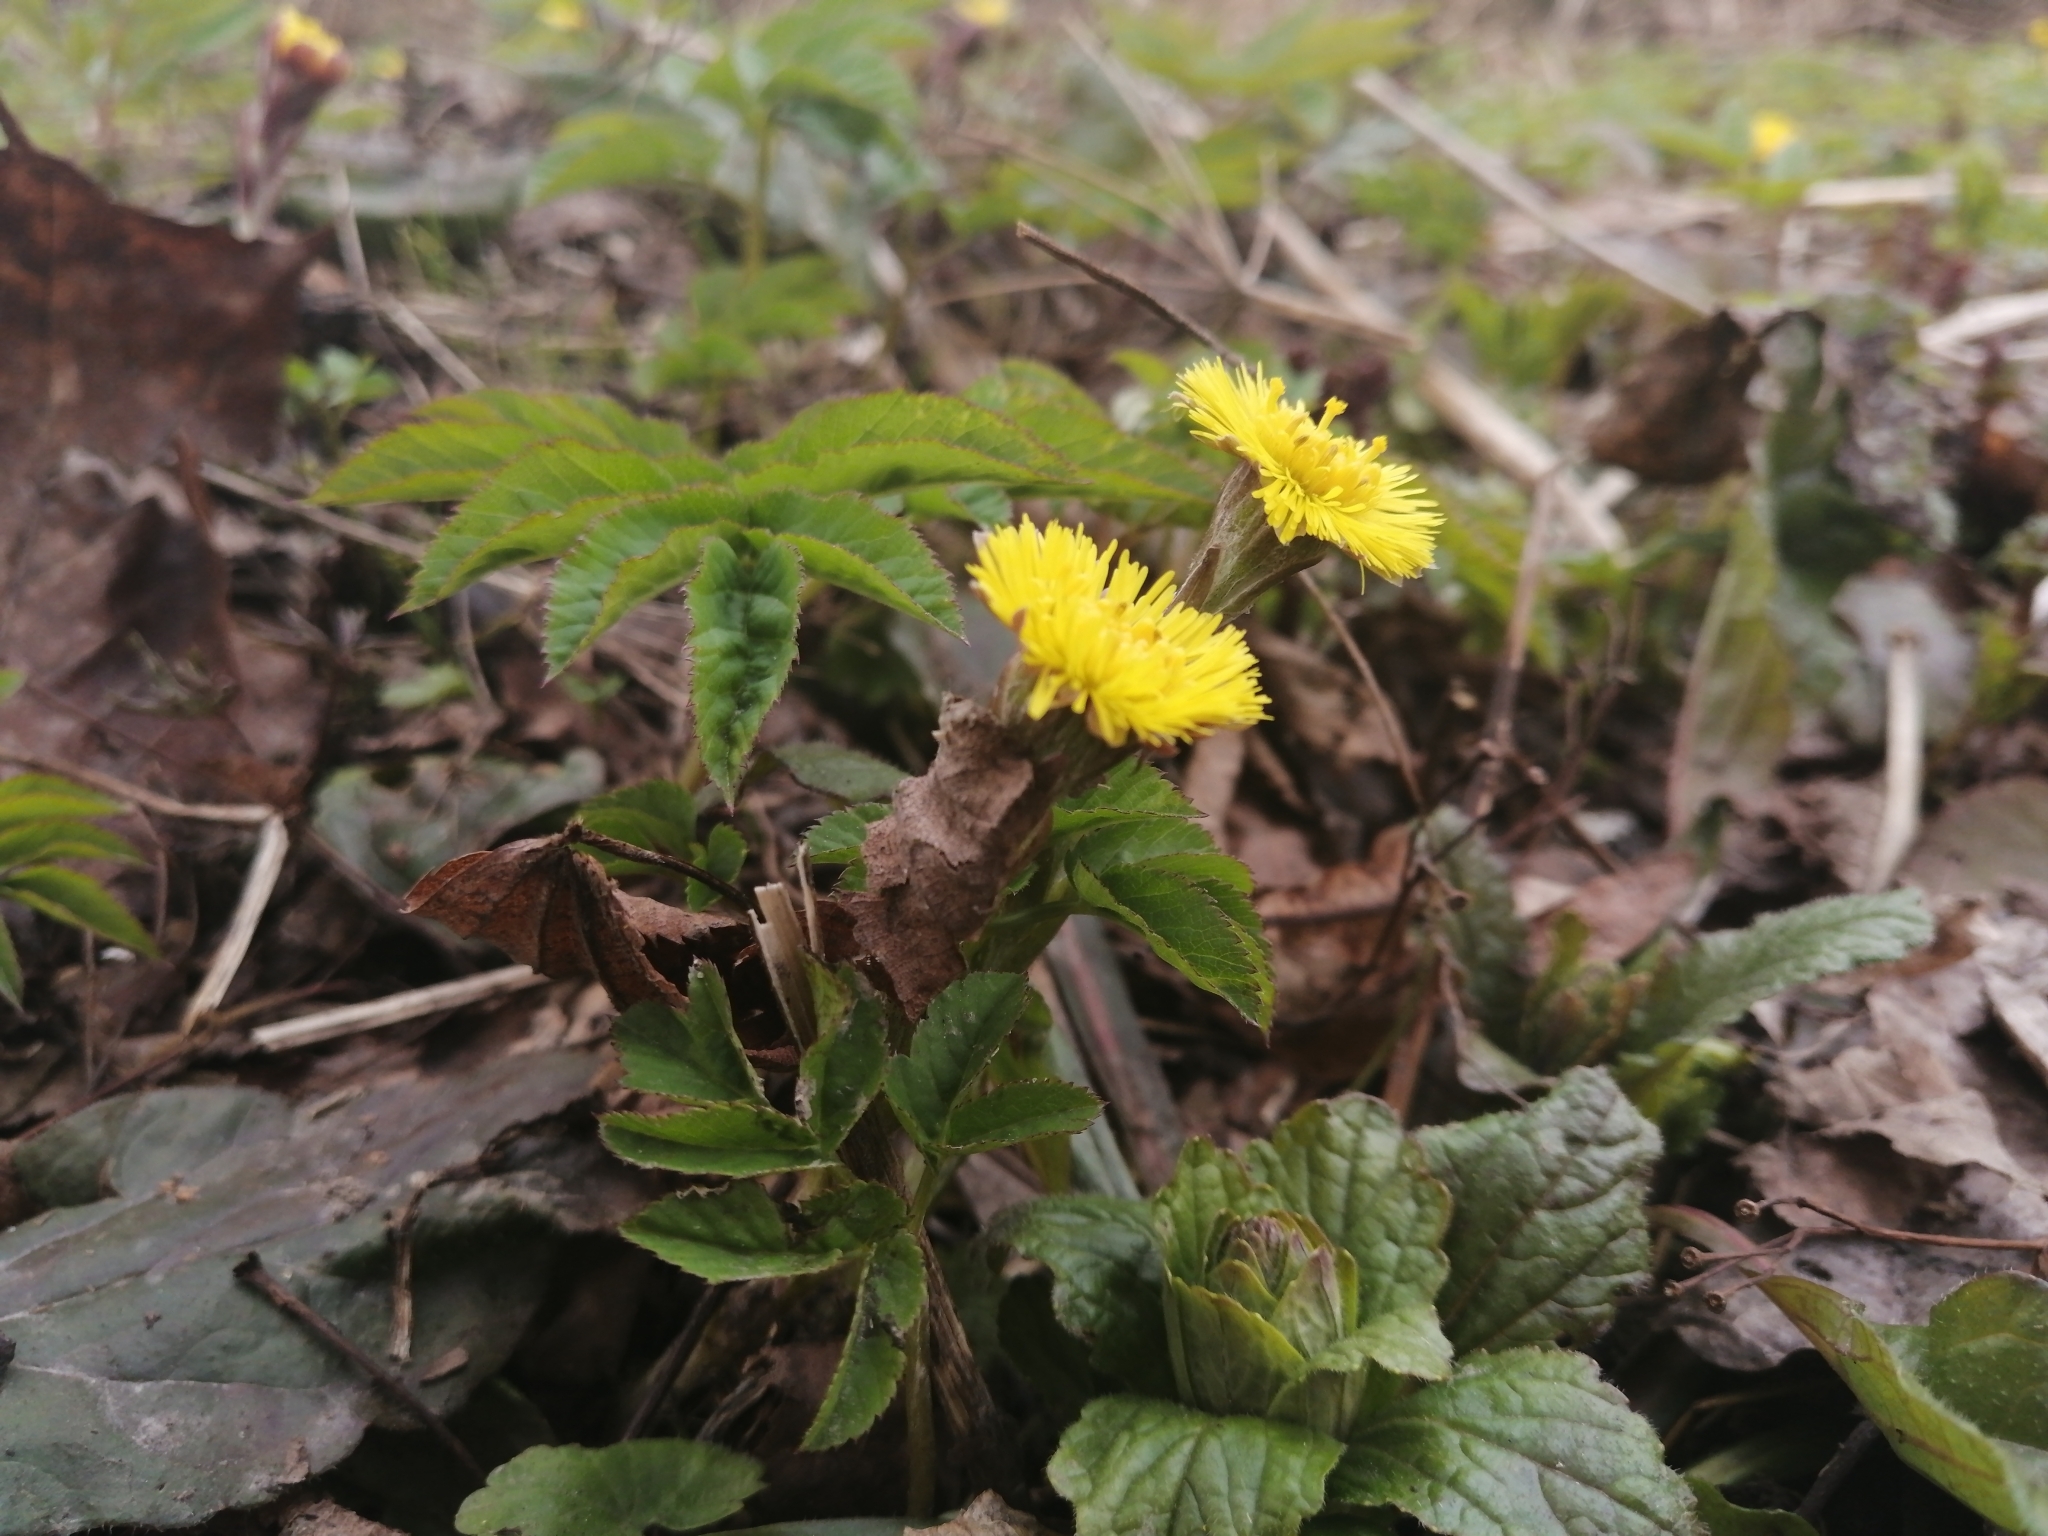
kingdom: Plantae
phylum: Tracheophyta
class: Magnoliopsida
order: Asterales
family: Asteraceae
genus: Tussilago
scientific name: Tussilago farfara
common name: Coltsfoot
